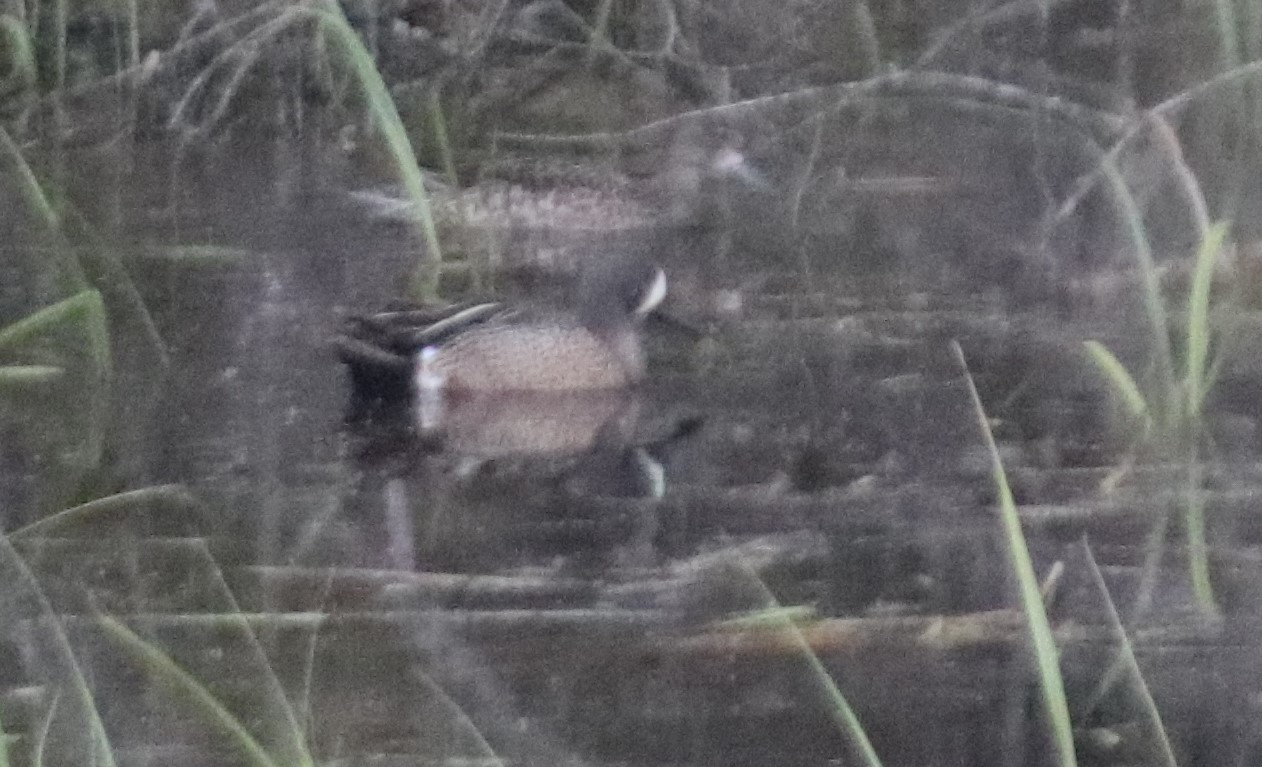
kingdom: Animalia
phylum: Chordata
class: Aves
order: Anseriformes
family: Anatidae
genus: Spatula
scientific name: Spatula discors
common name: Blue-winged teal
